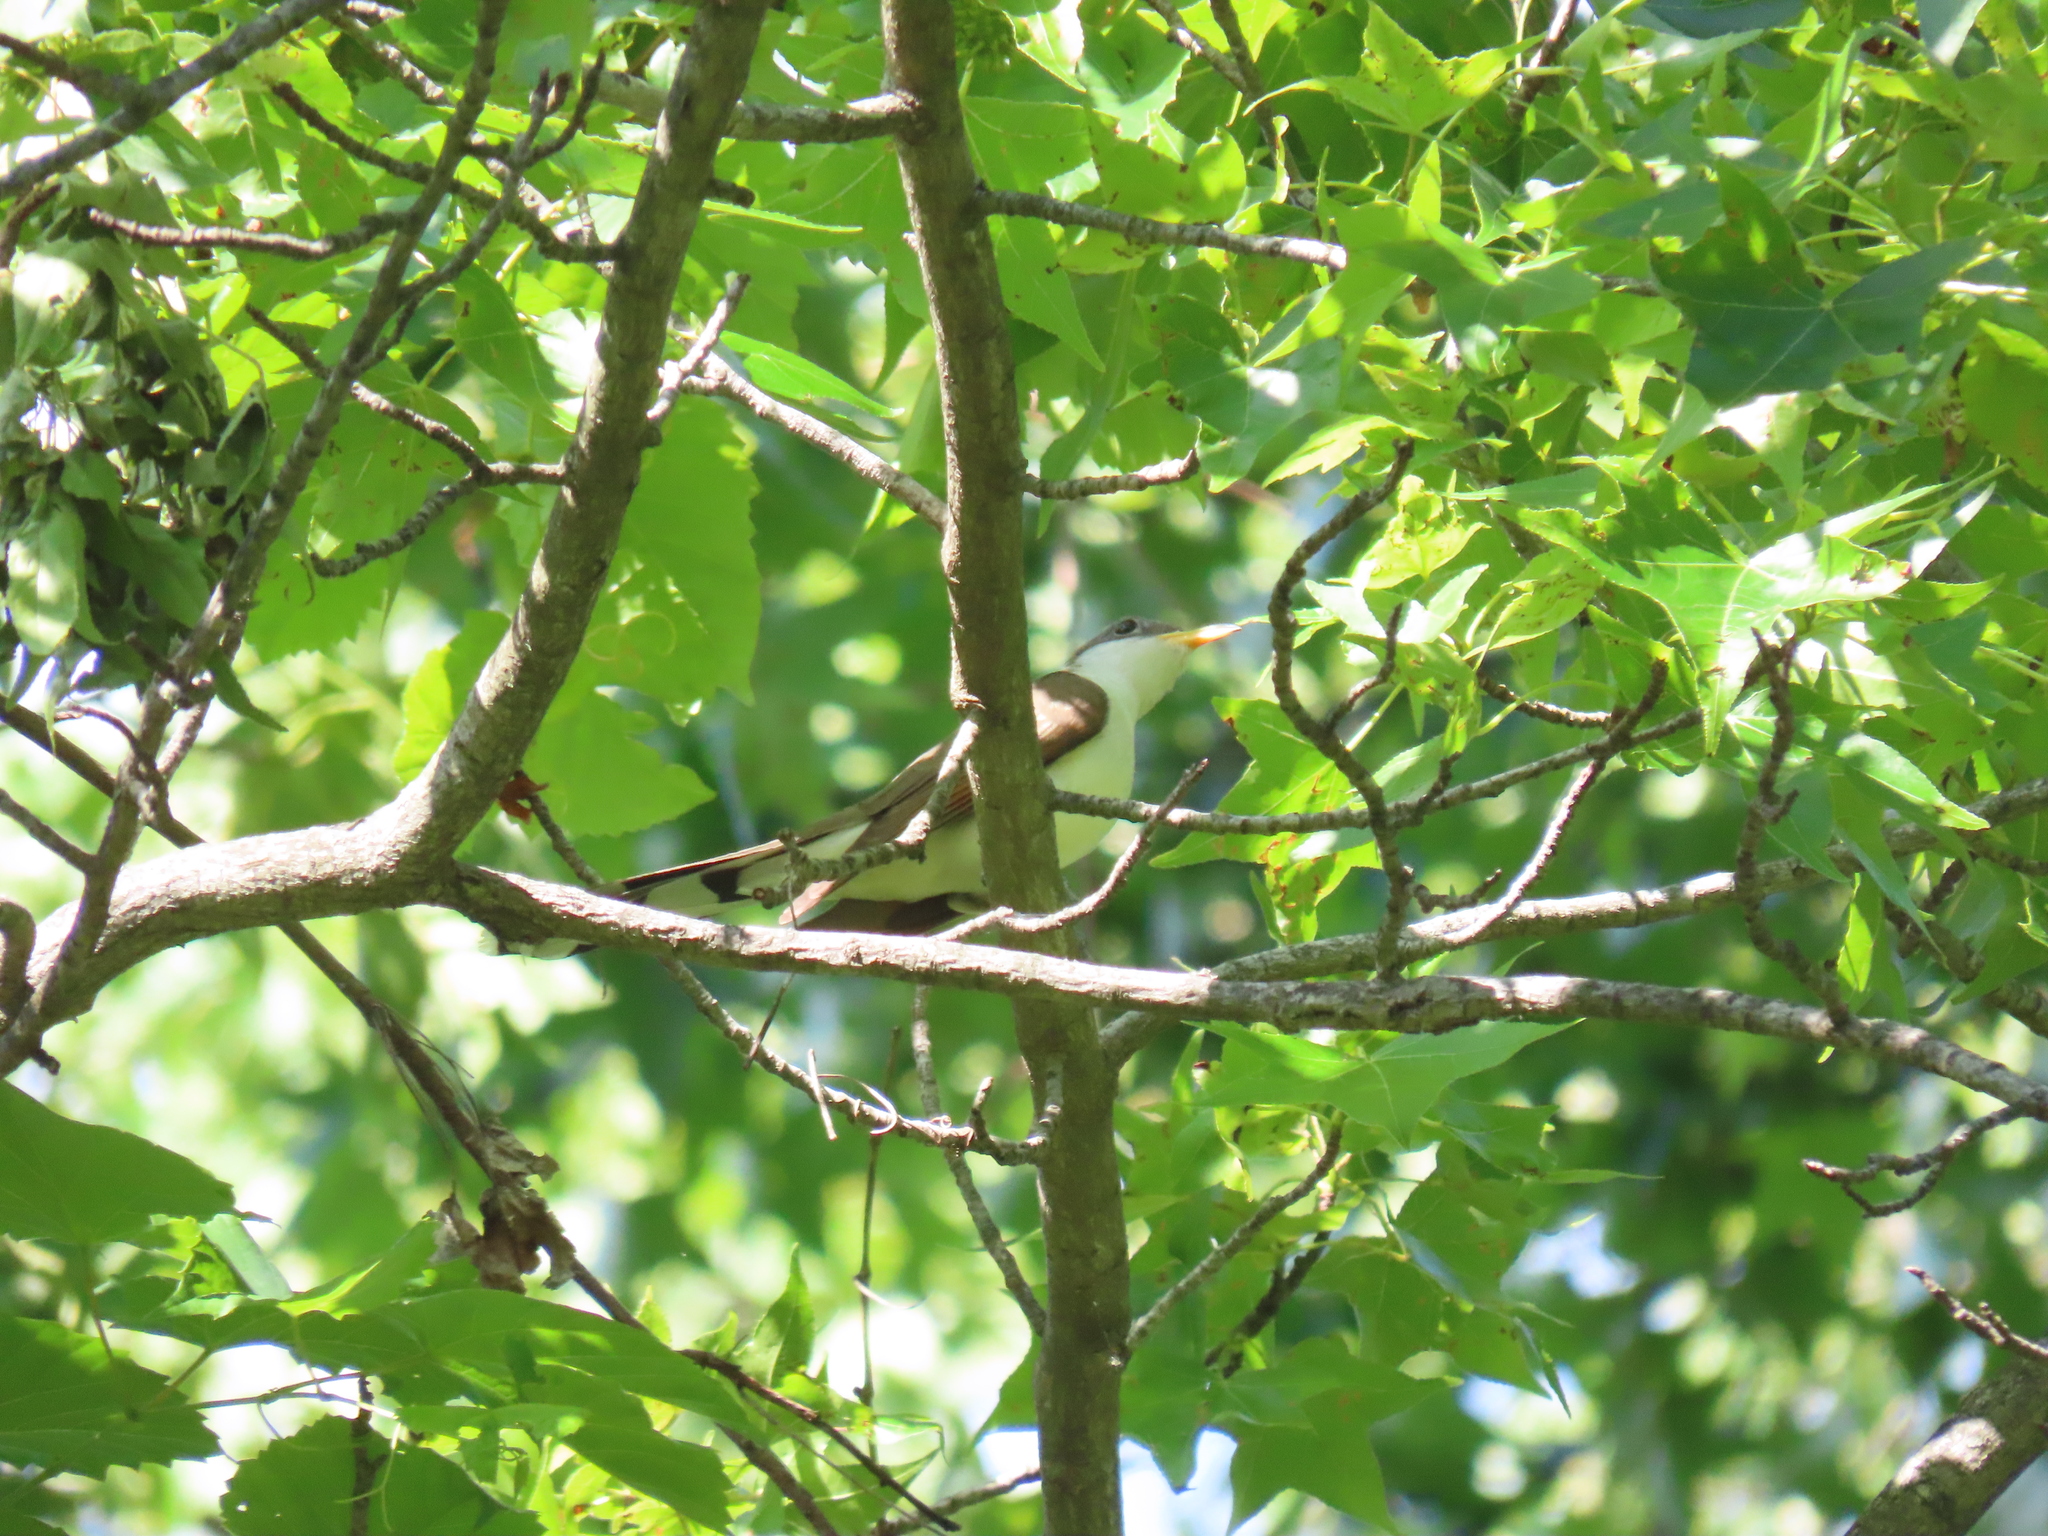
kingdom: Animalia
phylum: Chordata
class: Aves
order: Cuculiformes
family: Cuculidae
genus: Coccyzus
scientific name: Coccyzus americanus
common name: Yellow-billed cuckoo
